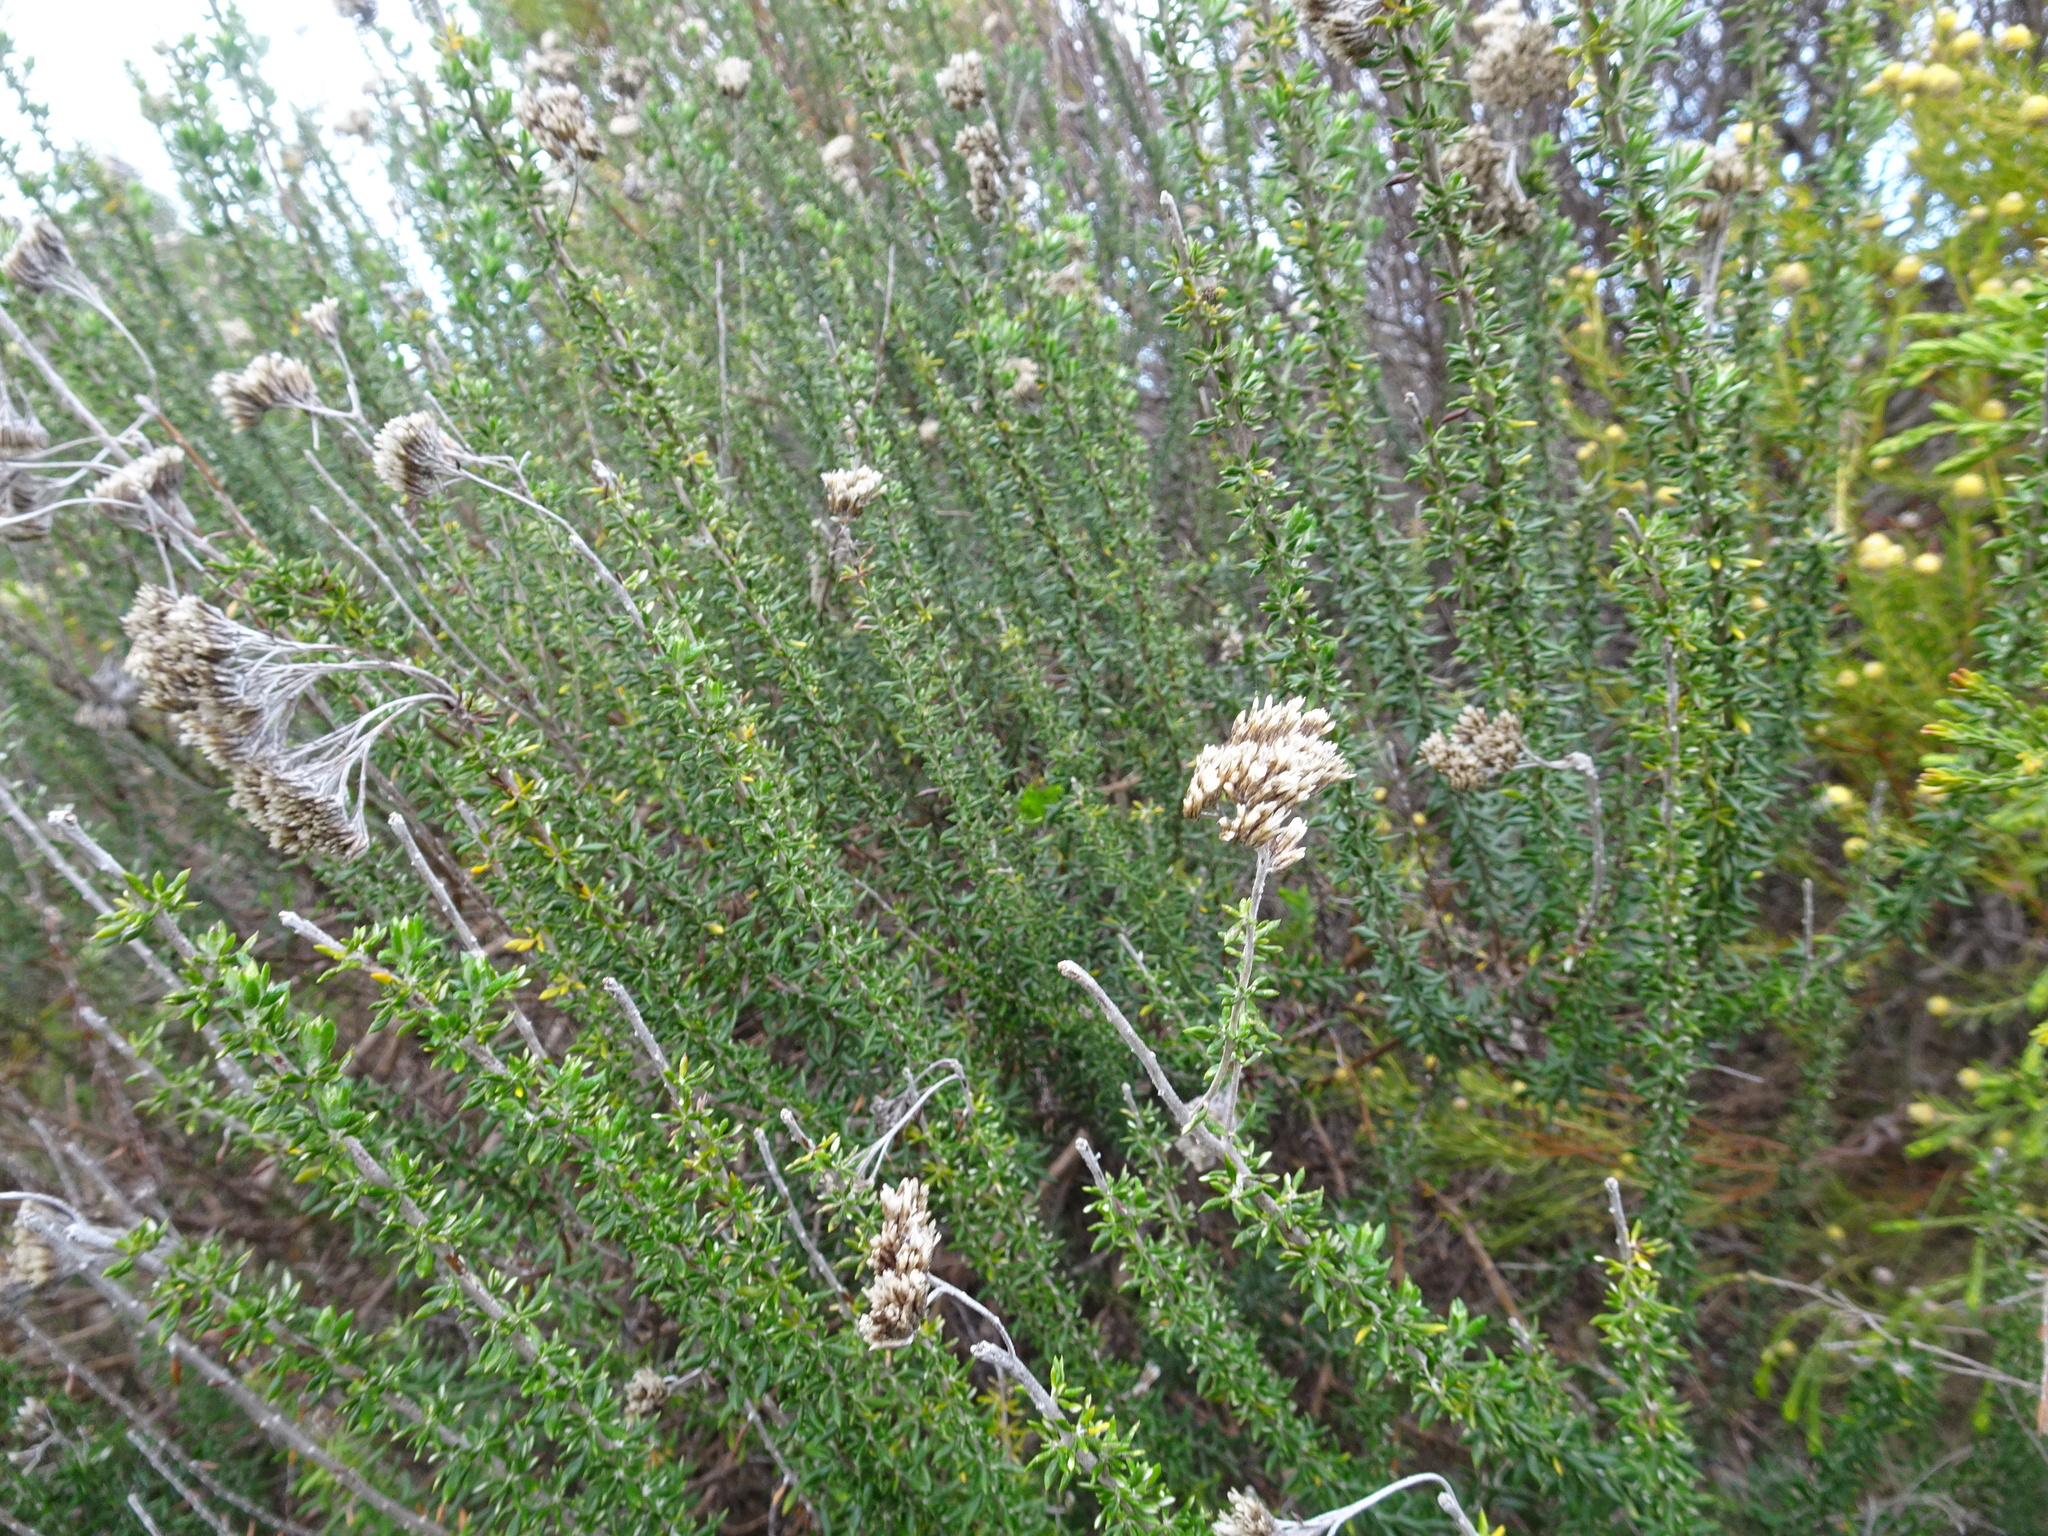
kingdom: Plantae
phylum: Tracheophyta
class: Magnoliopsida
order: Asterales
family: Asteraceae
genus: Metalasia
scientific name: Metalasia densa
